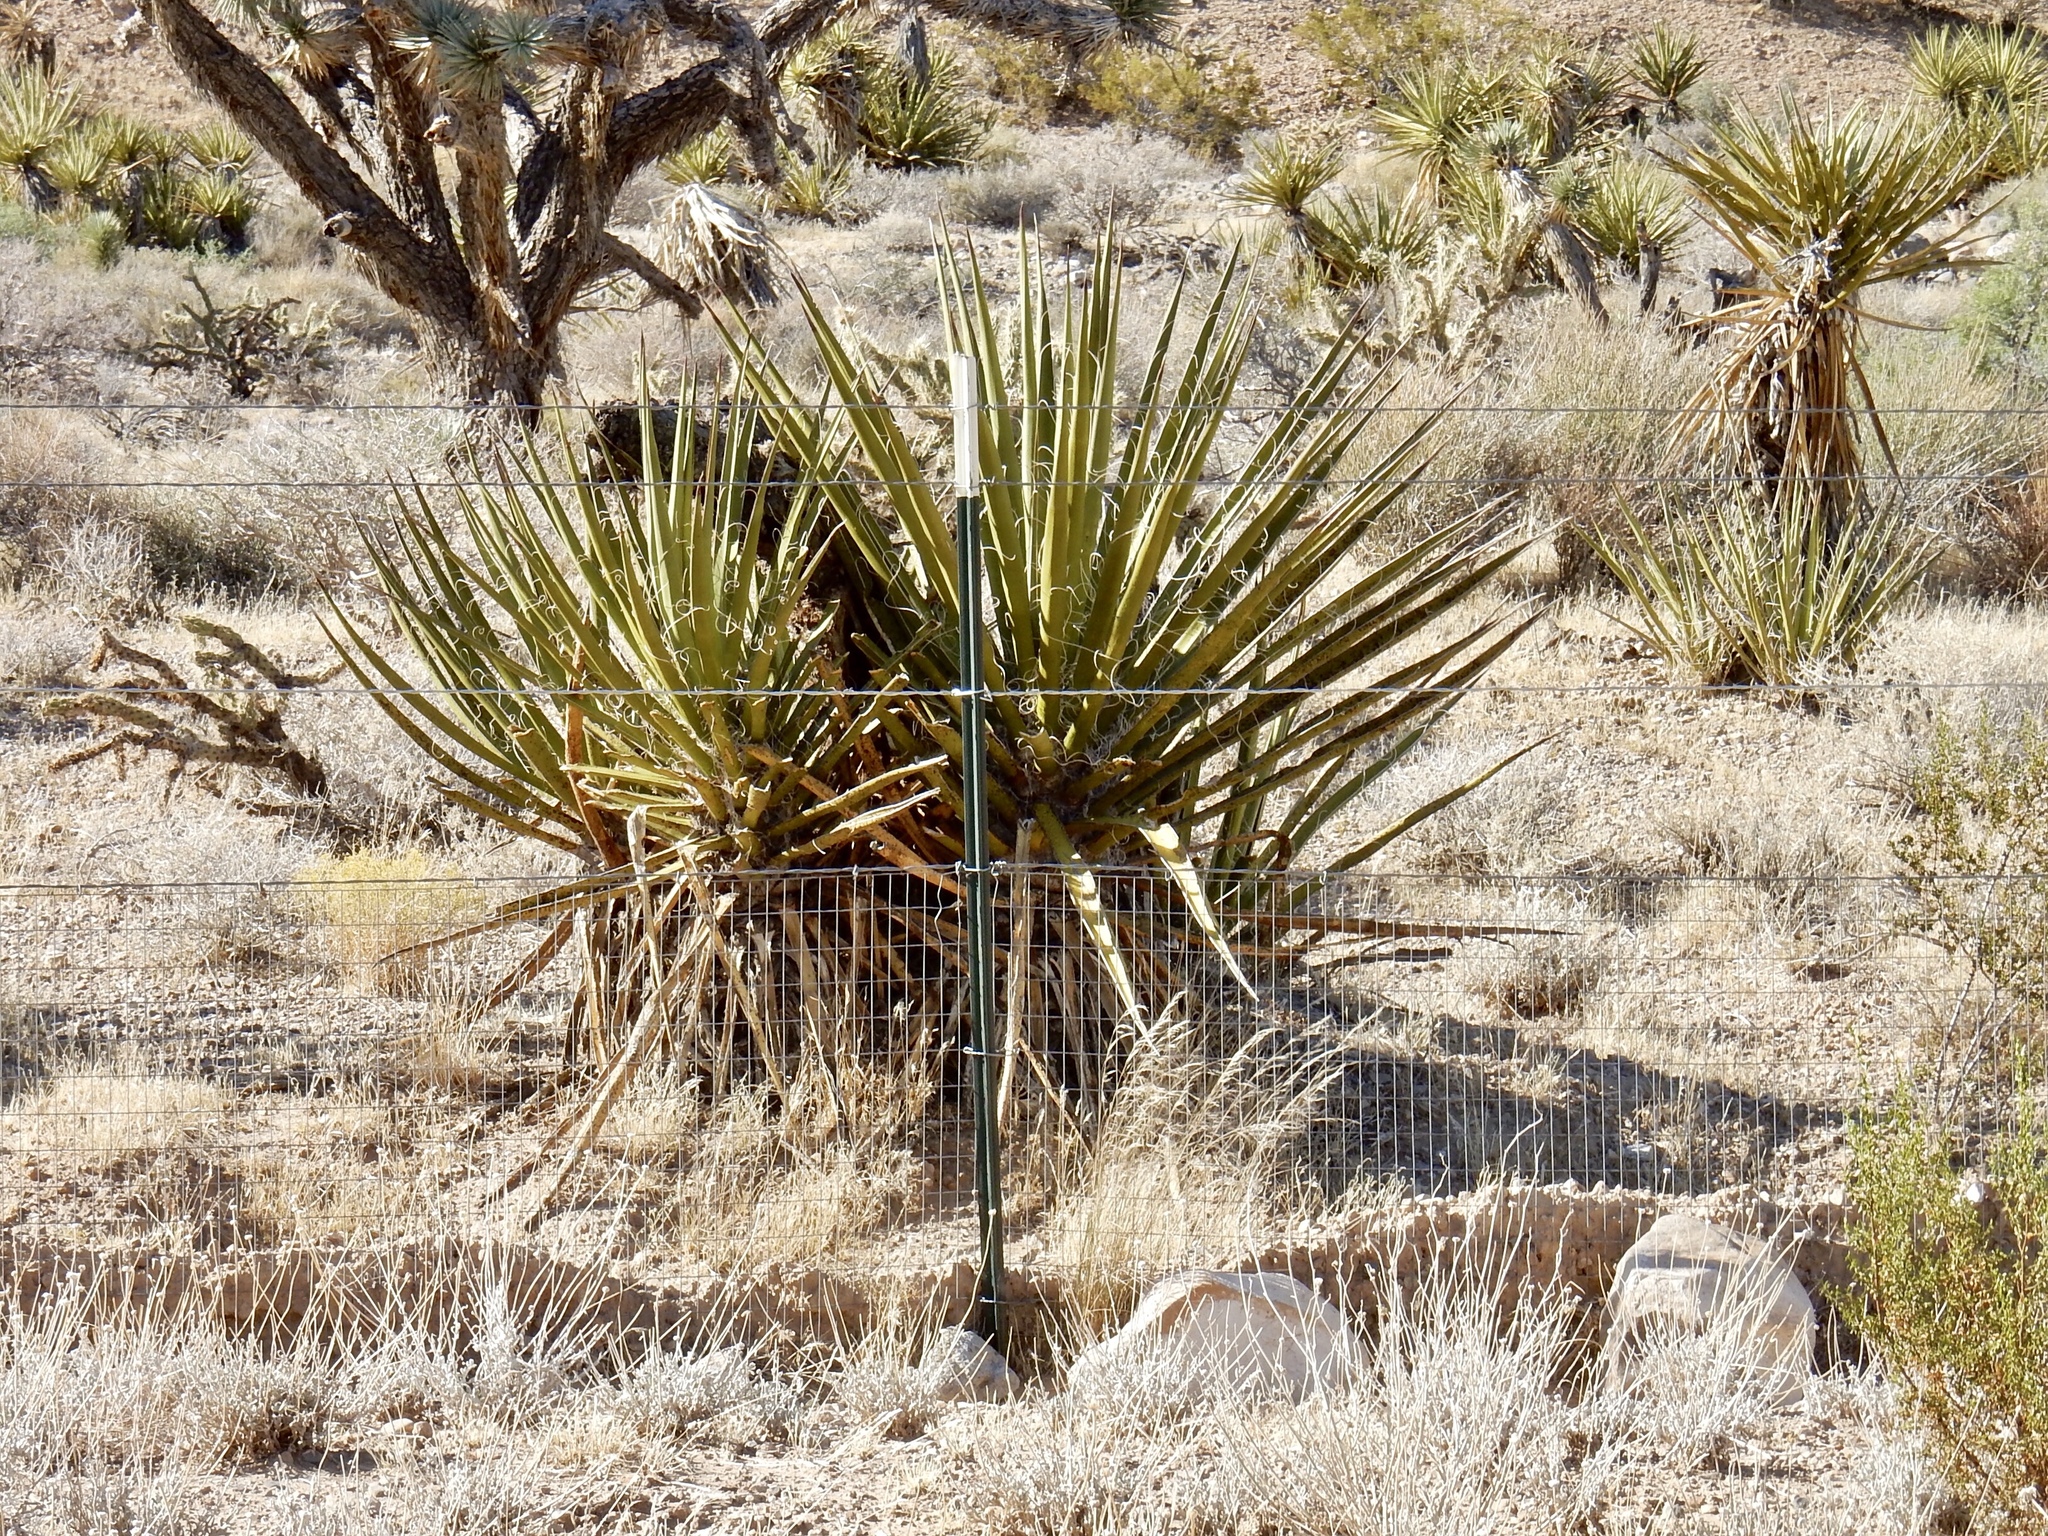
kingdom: Plantae
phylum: Tracheophyta
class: Liliopsida
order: Asparagales
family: Asparagaceae
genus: Yucca
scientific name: Yucca schidigera
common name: Mojave yucca
